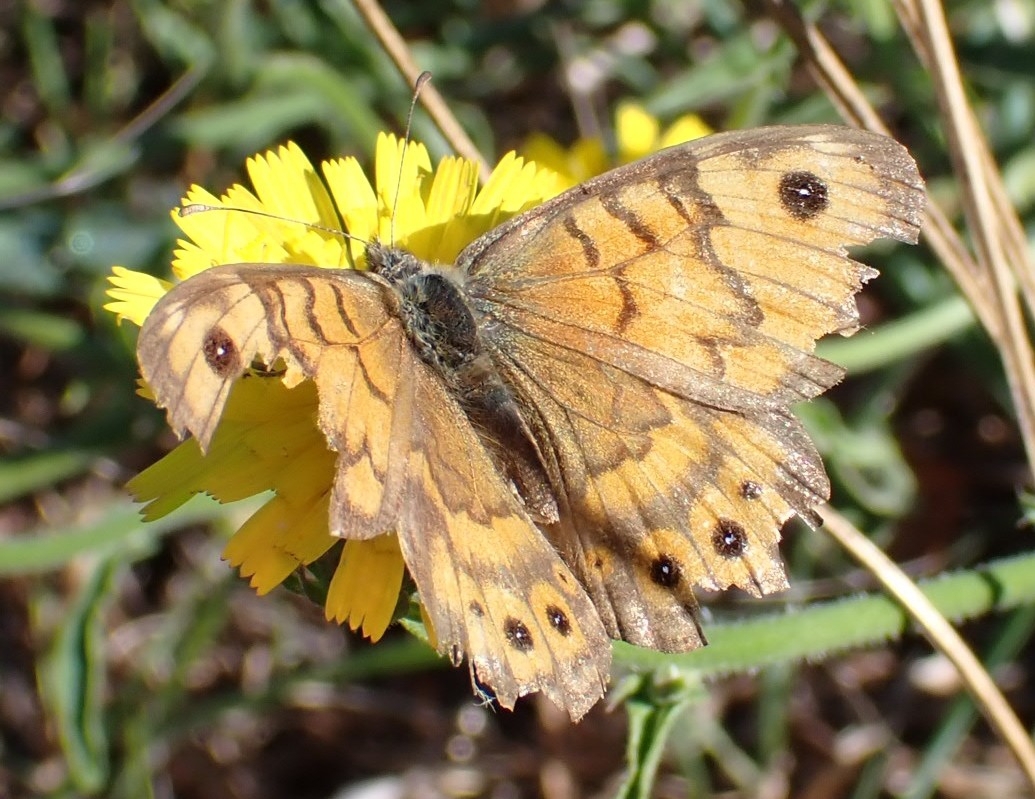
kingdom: Animalia
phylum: Arthropoda
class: Insecta
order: Lepidoptera
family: Nymphalidae
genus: Pararge
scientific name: Pararge Lasiommata megera
